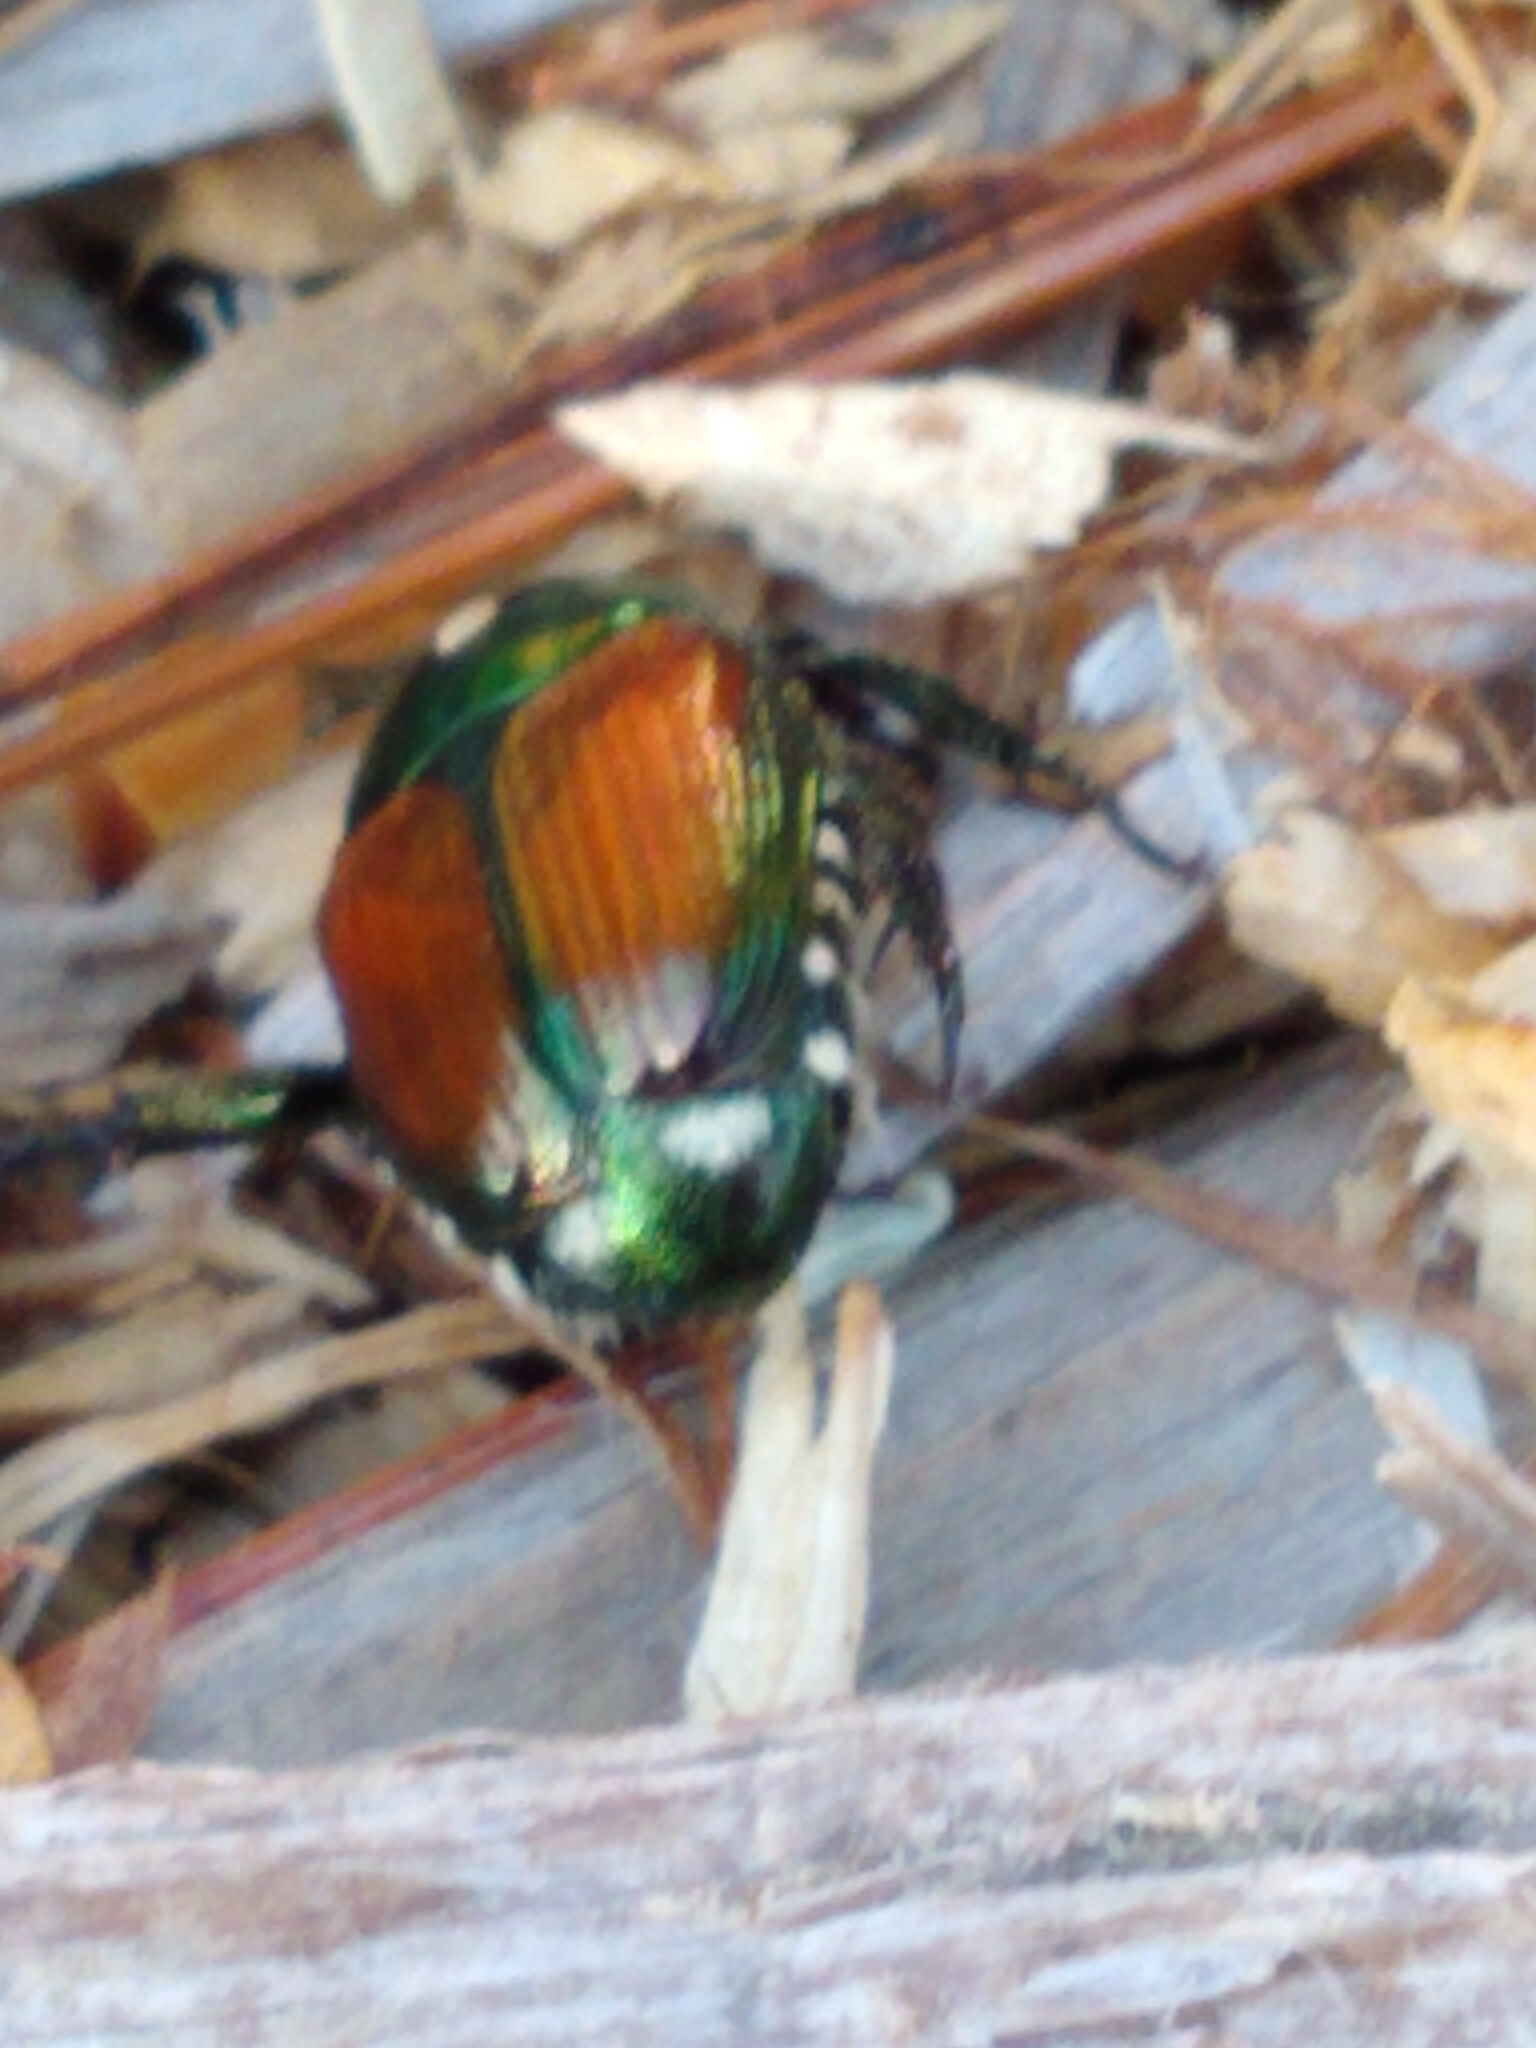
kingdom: Animalia
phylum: Arthropoda
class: Insecta
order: Coleoptera
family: Scarabaeidae
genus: Popillia
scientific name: Popillia japonica
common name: Japanese beetle
